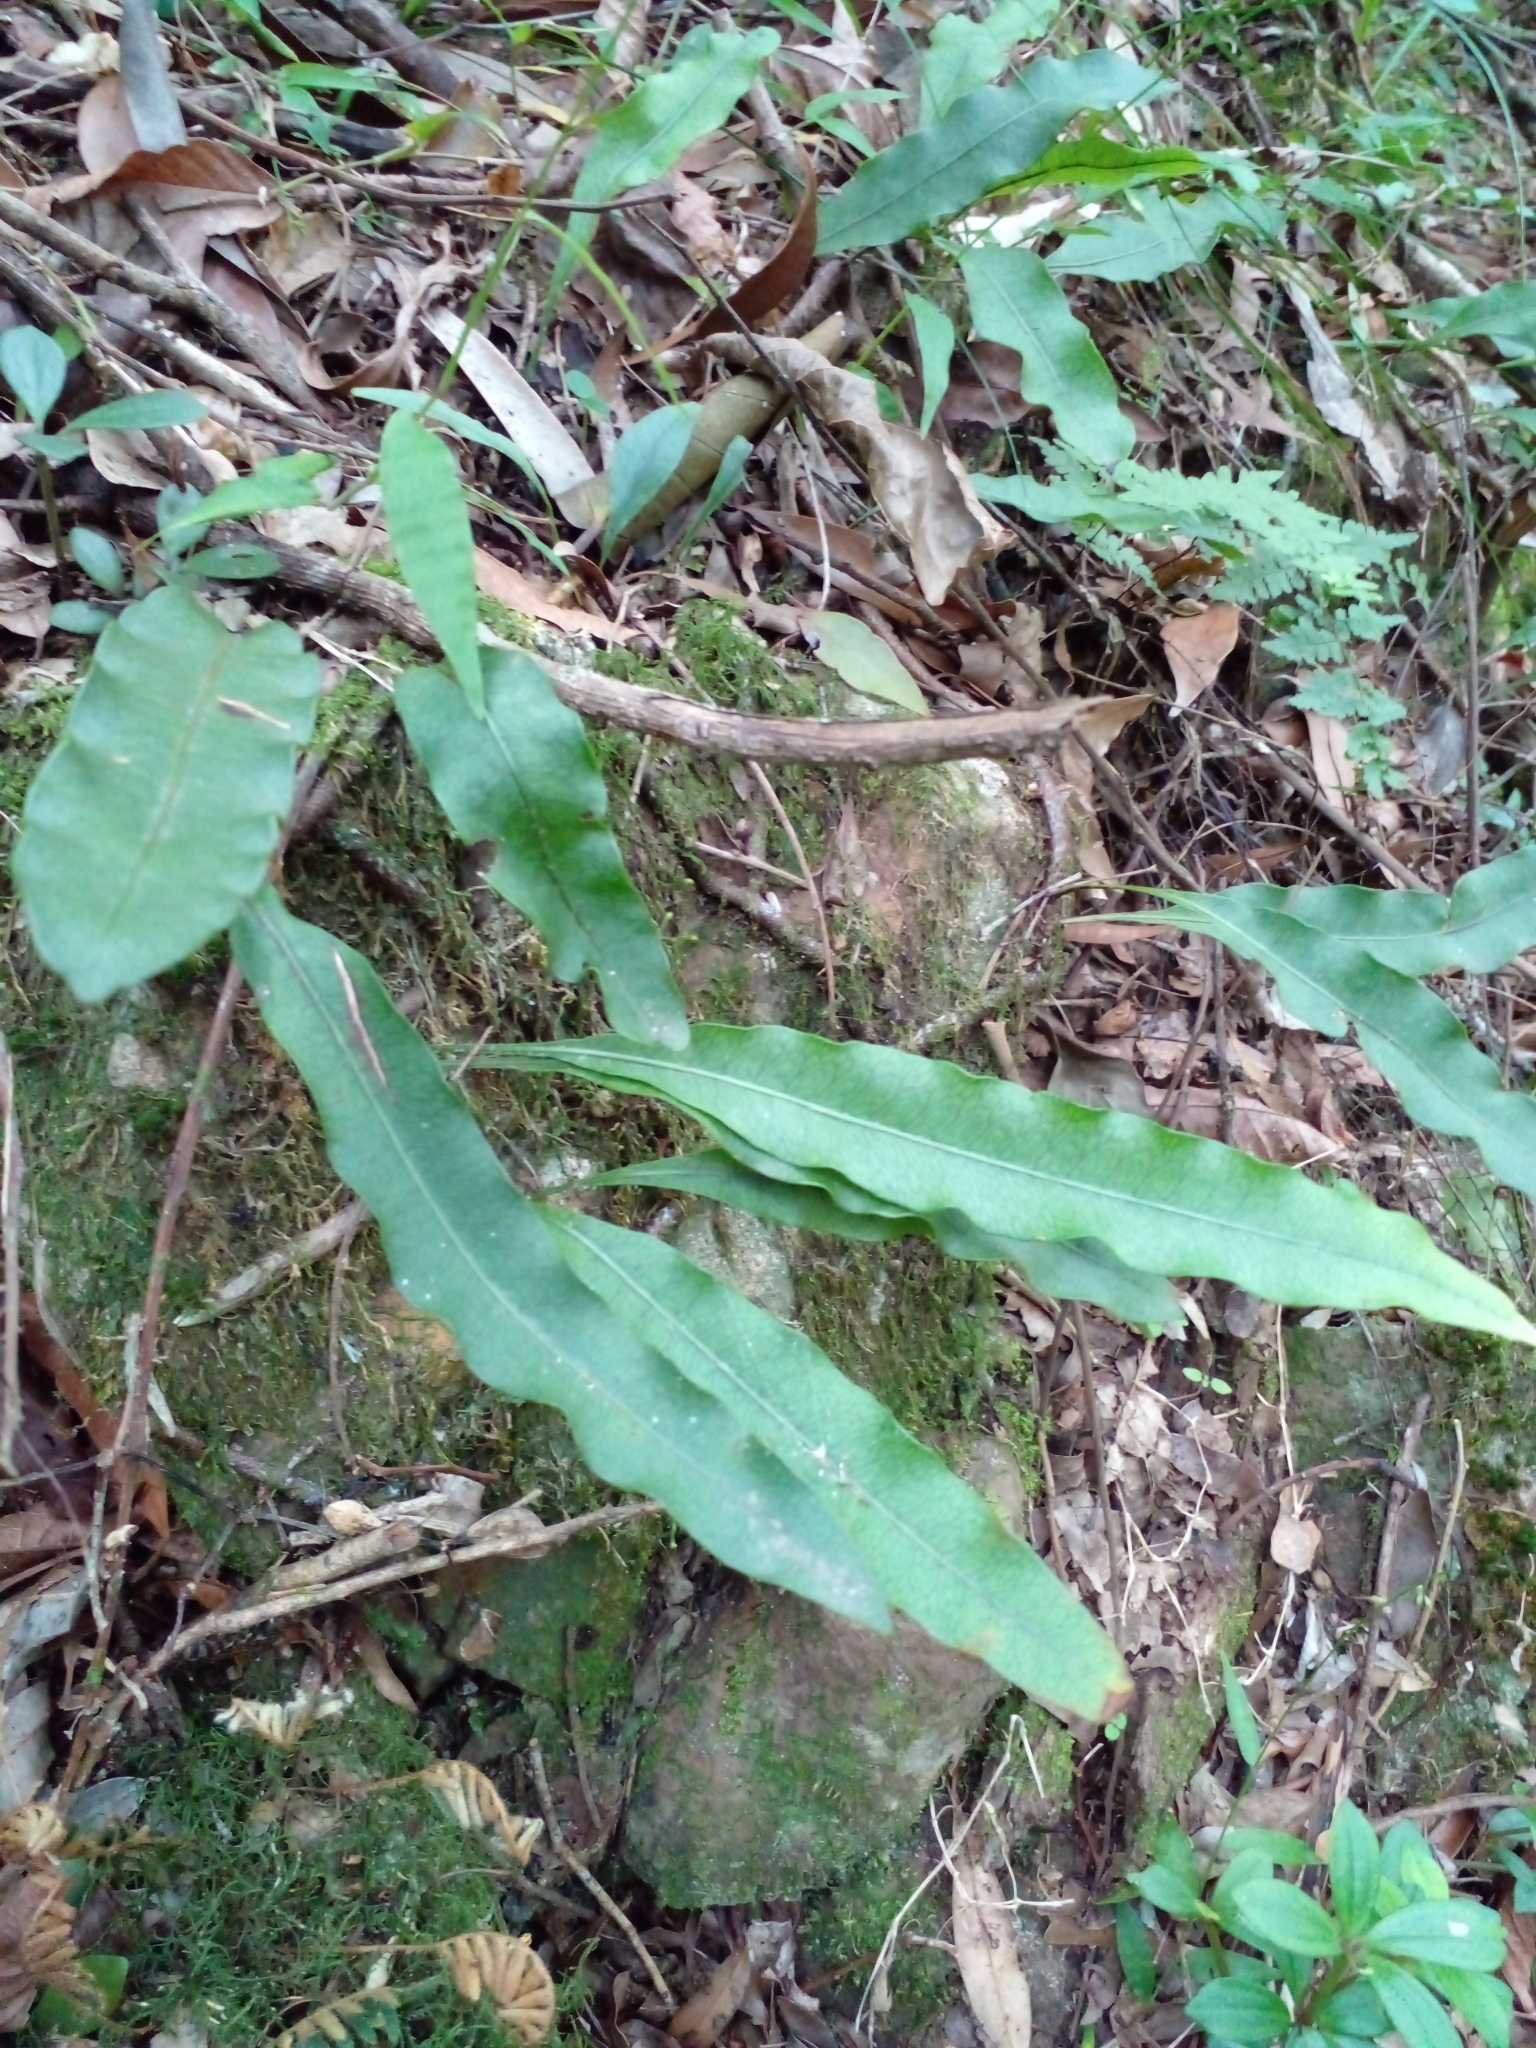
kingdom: Plantae
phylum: Tracheophyta
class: Polypodiopsida
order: Polypodiales
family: Polypodiaceae
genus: Microgramma
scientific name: Microgramma squamulosa
